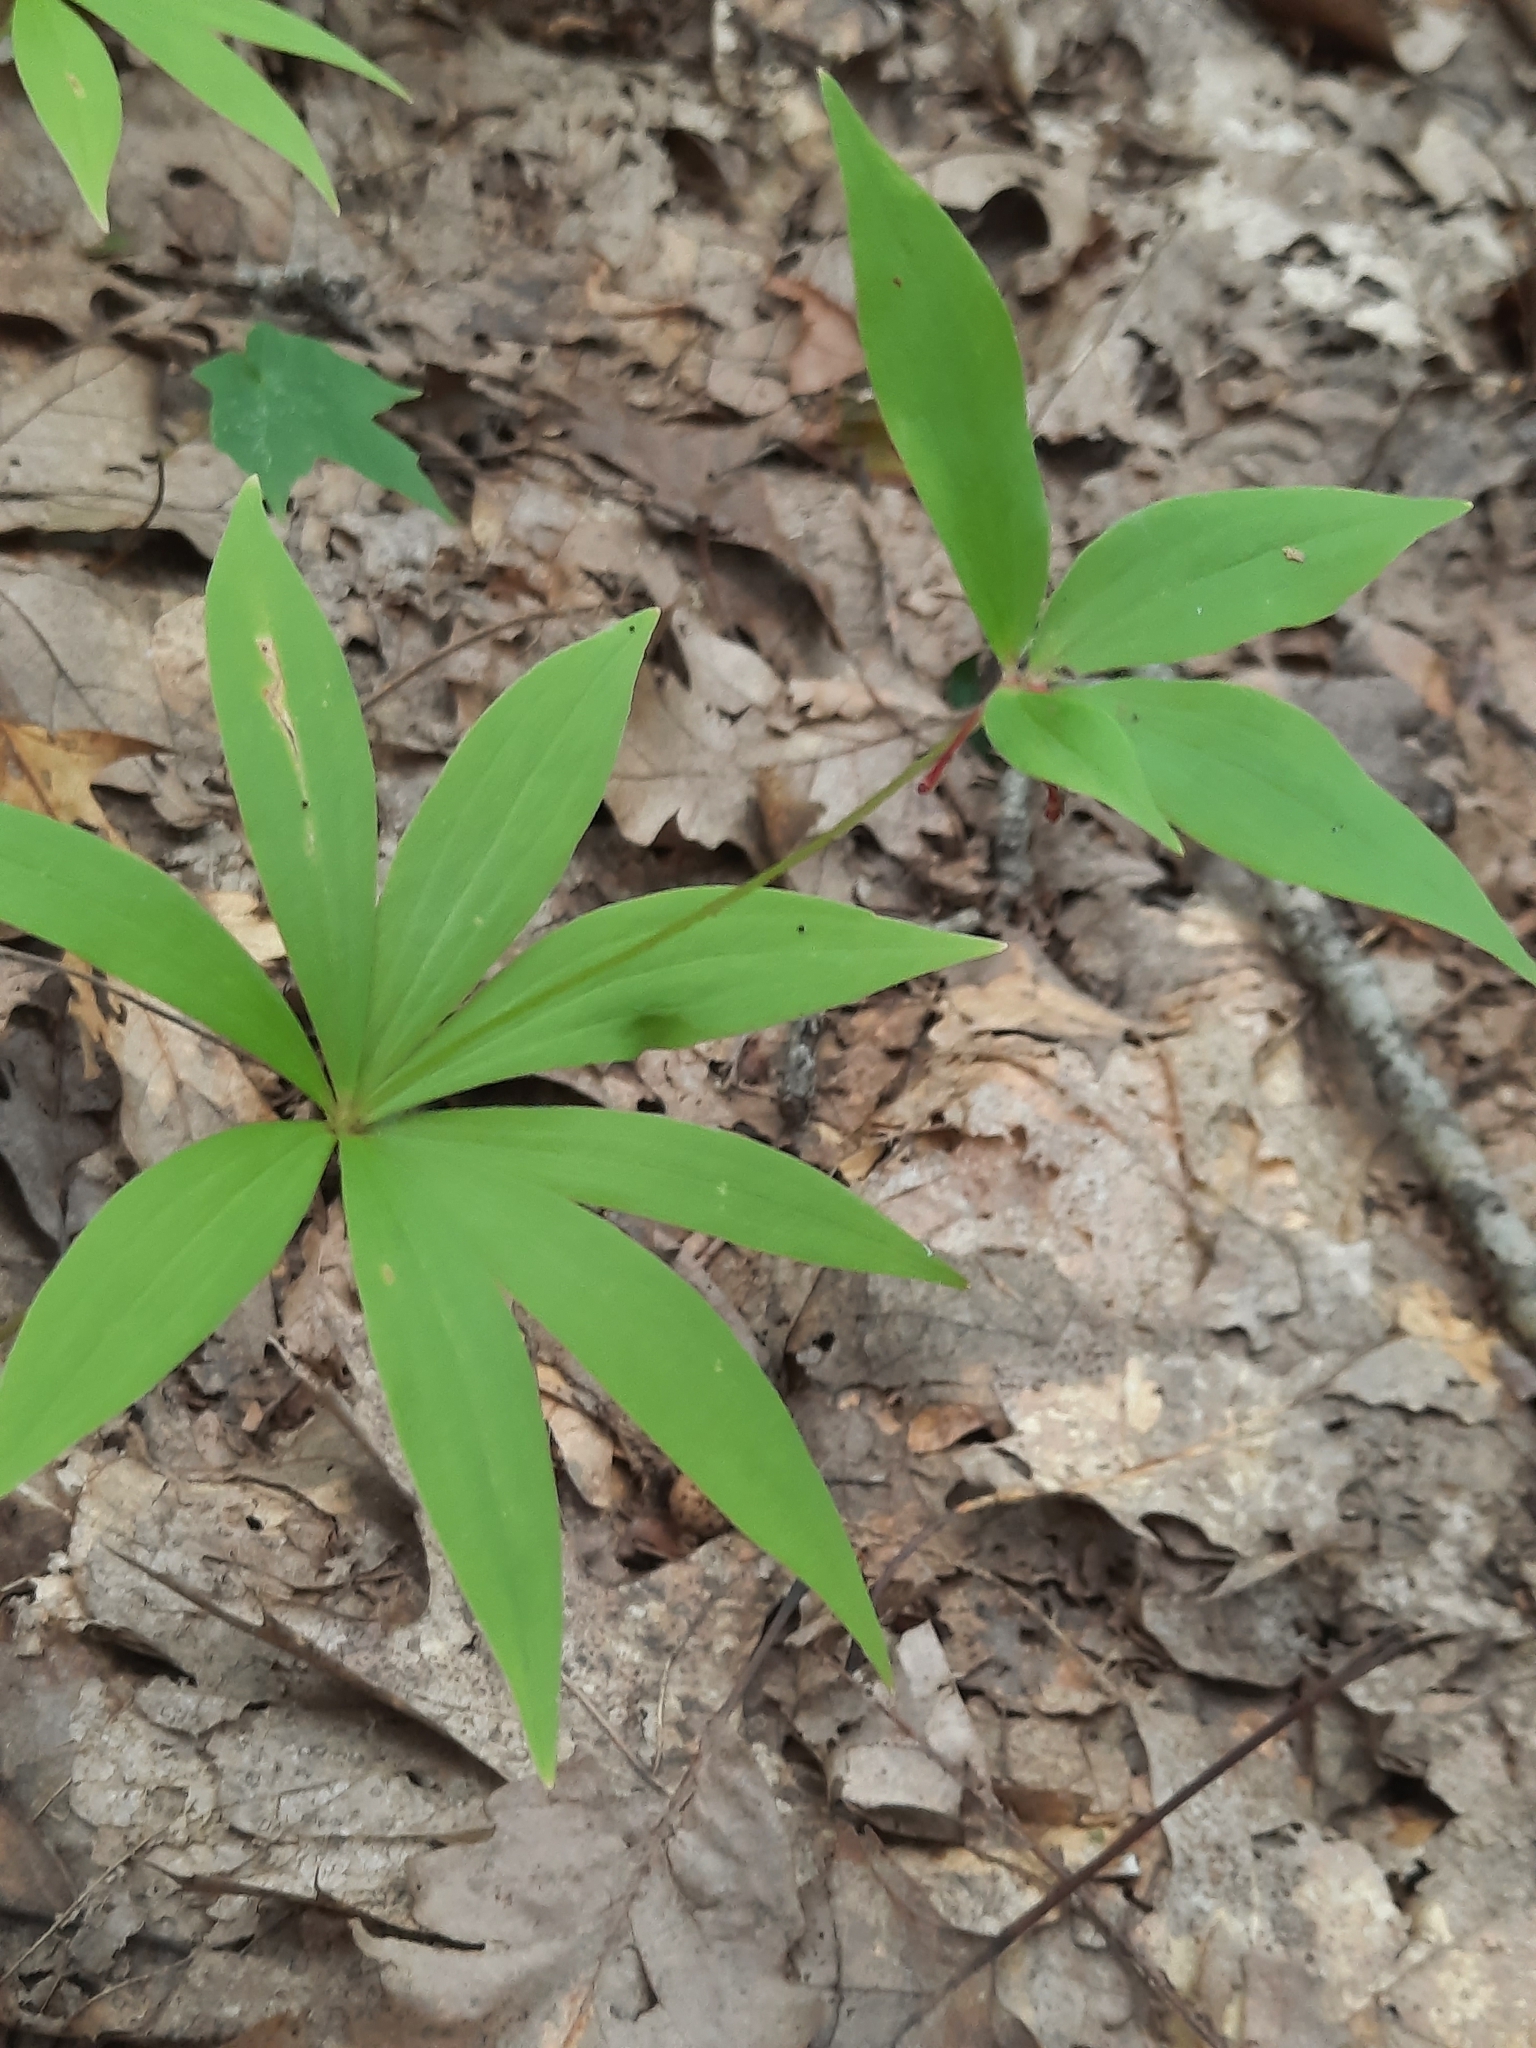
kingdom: Plantae
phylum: Tracheophyta
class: Liliopsida
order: Liliales
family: Liliaceae
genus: Medeola
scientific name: Medeola virginiana
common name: Indian cucumber-root
